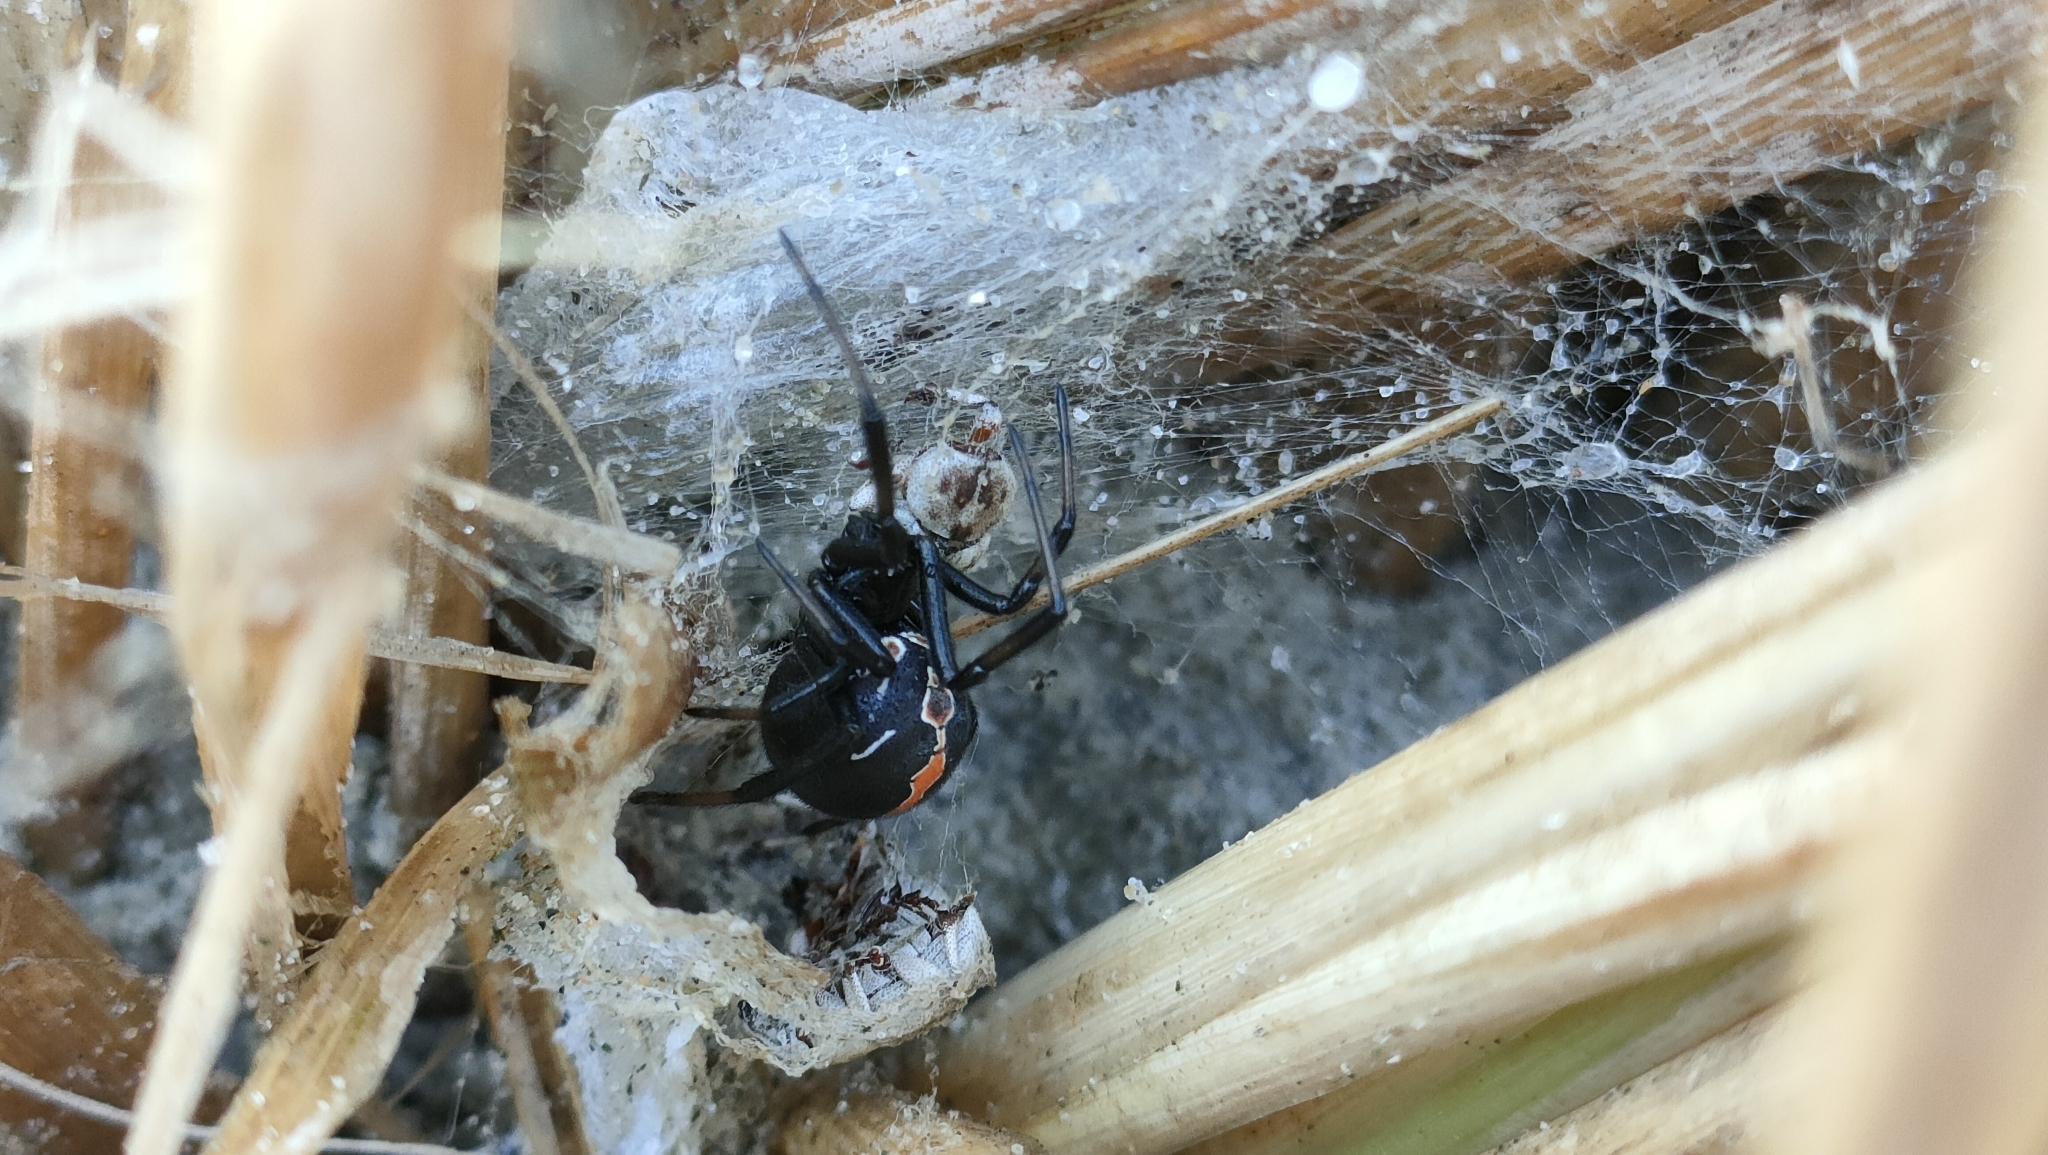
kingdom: Animalia
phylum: Arthropoda
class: Arachnida
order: Araneae
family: Theridiidae
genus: Latrodectus
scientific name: Latrodectus katipo
